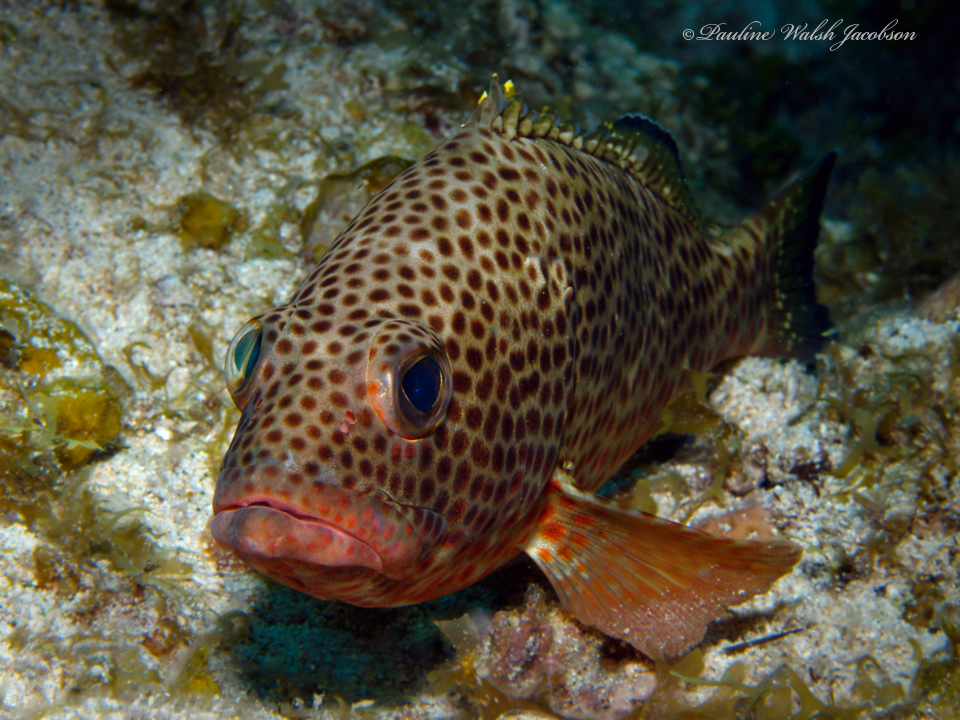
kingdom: Animalia
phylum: Chordata
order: Perciformes
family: Serranidae
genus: Epinephelus
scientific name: Epinephelus guttatus
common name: Red hind
